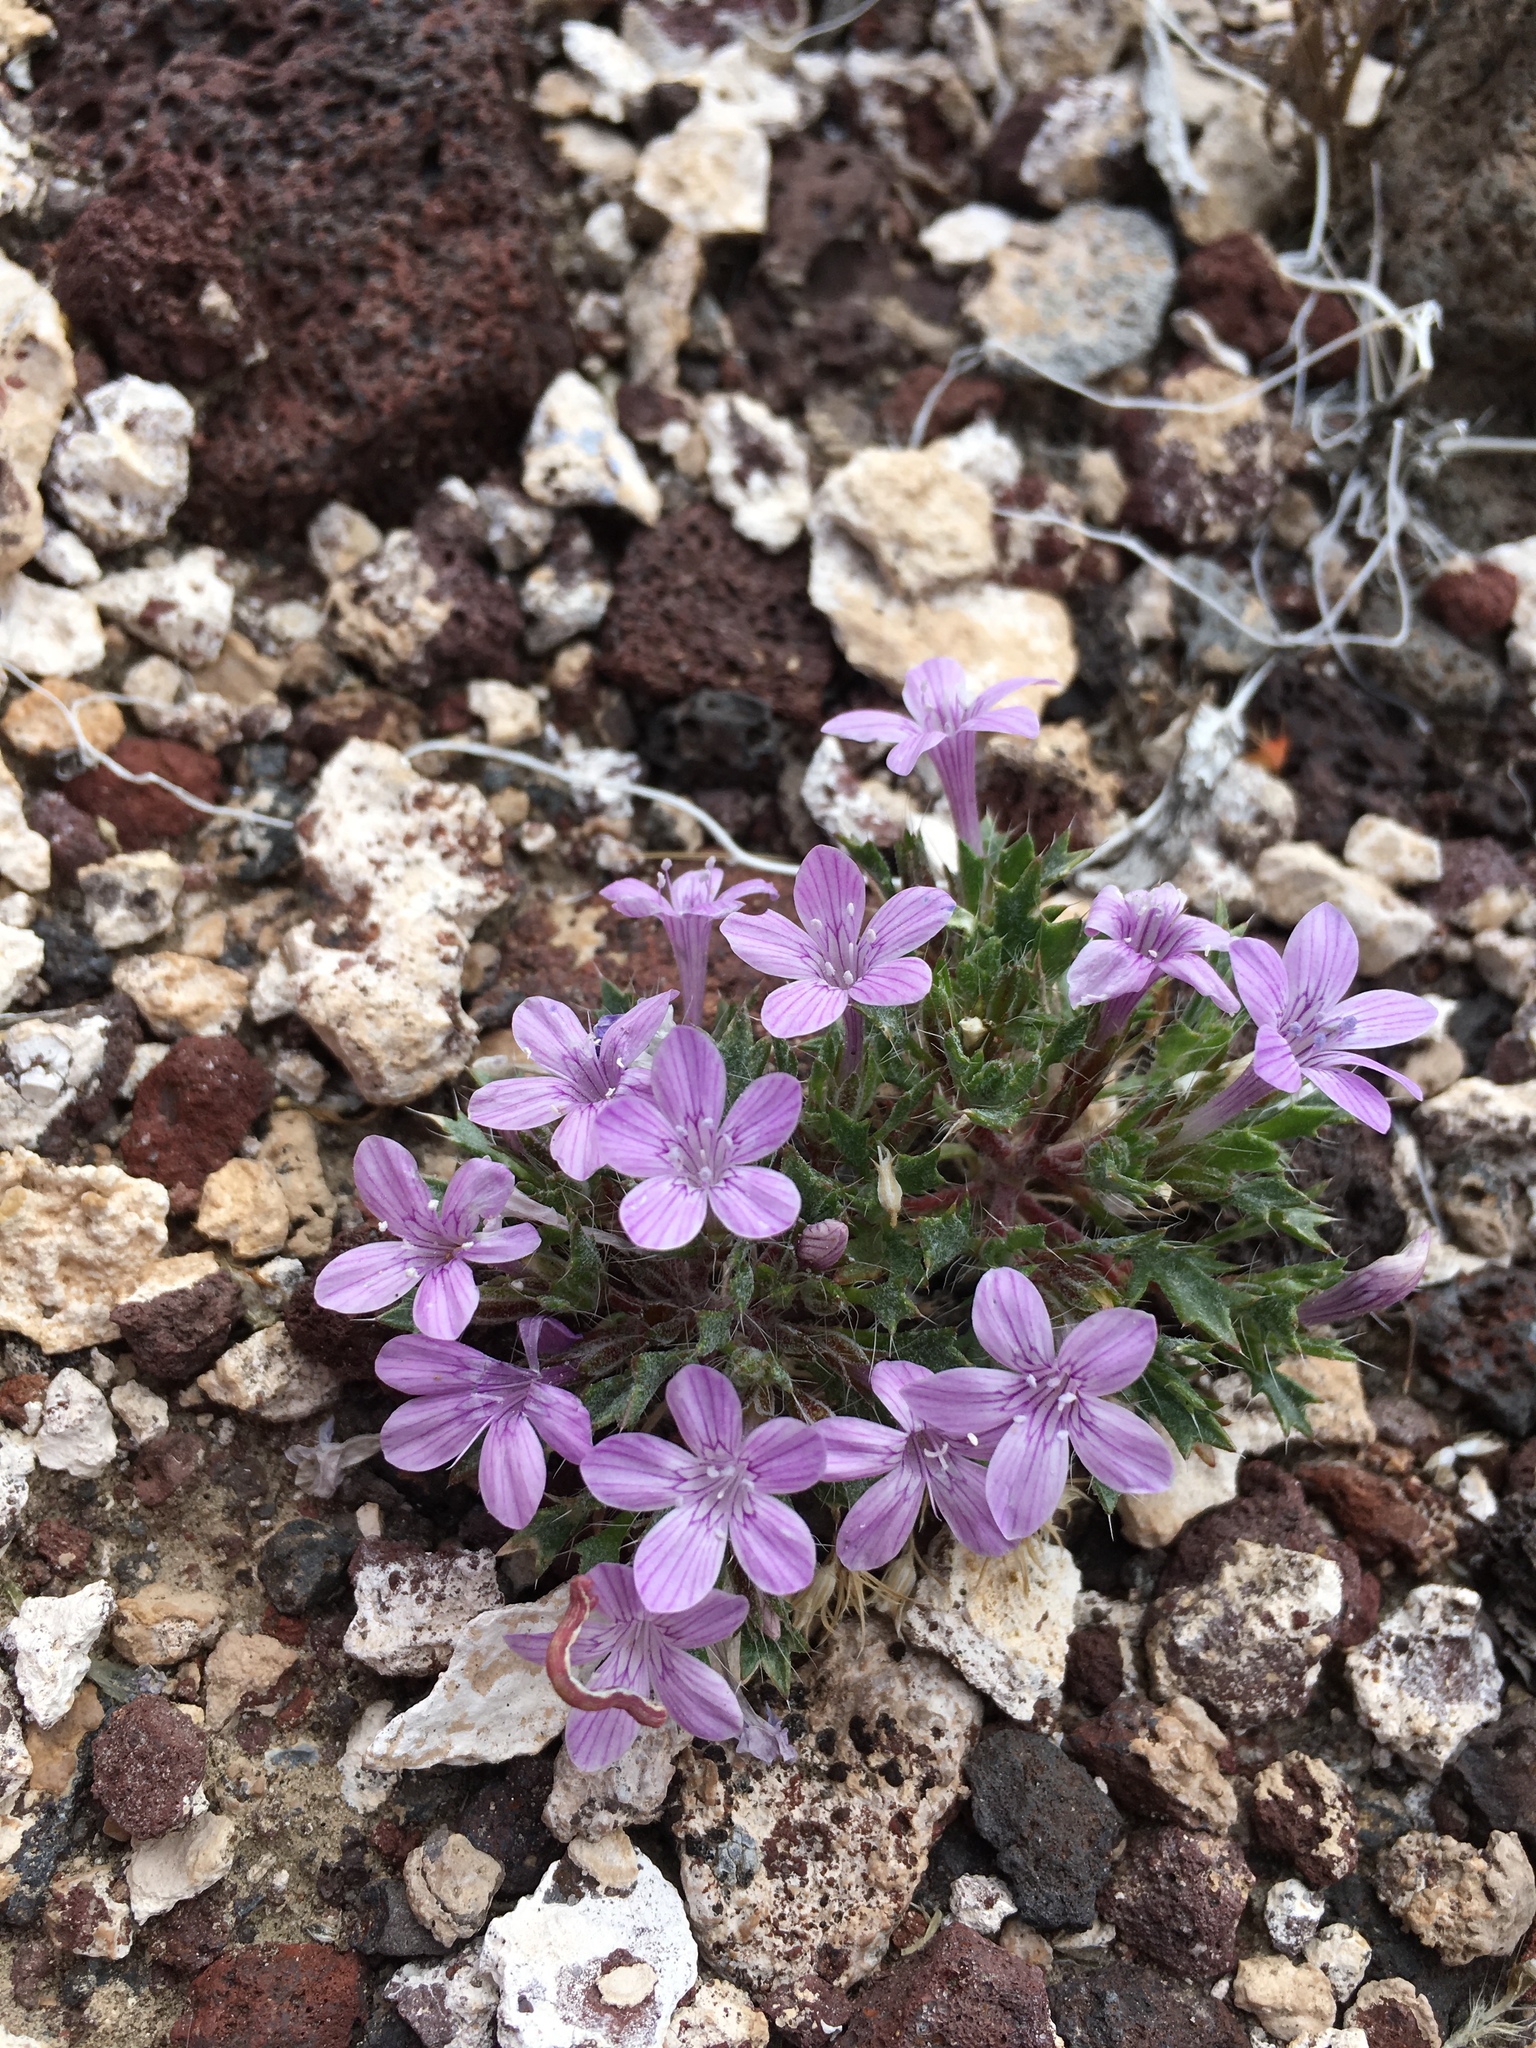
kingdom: Plantae
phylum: Tracheophyta
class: Magnoliopsida
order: Ericales
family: Polemoniaceae
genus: Langloisia
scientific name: Langloisia setosissima
